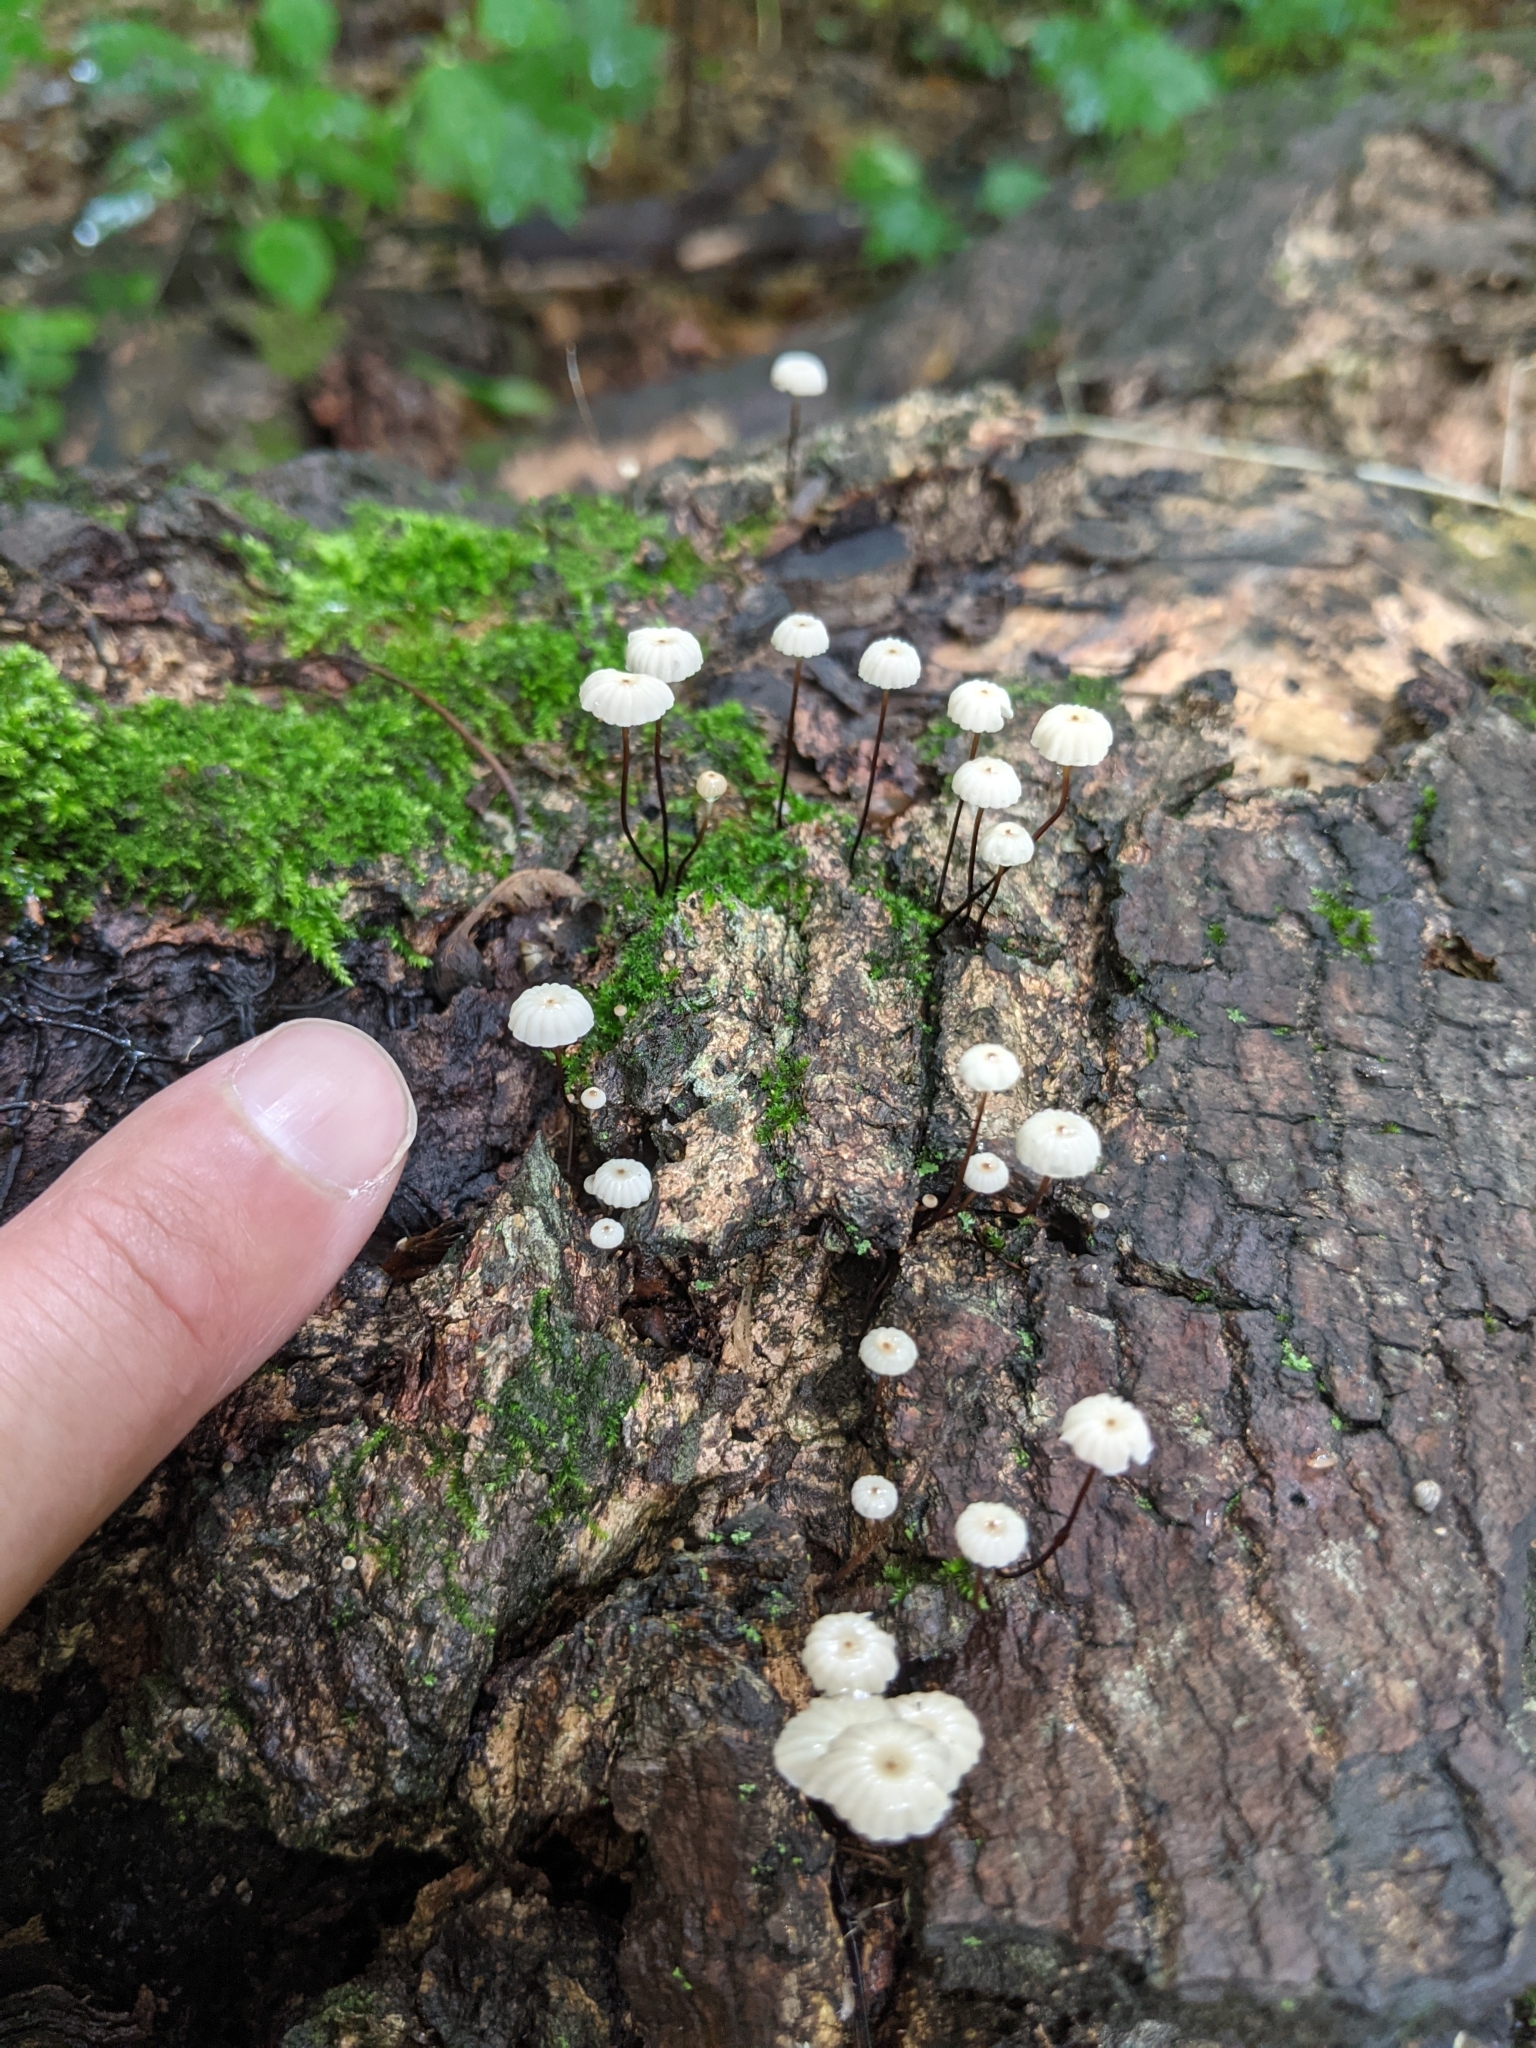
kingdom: Fungi
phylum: Basidiomycota
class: Agaricomycetes
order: Agaricales
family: Marasmiaceae
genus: Marasmius
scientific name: Marasmius rotula
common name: Collared parachute
